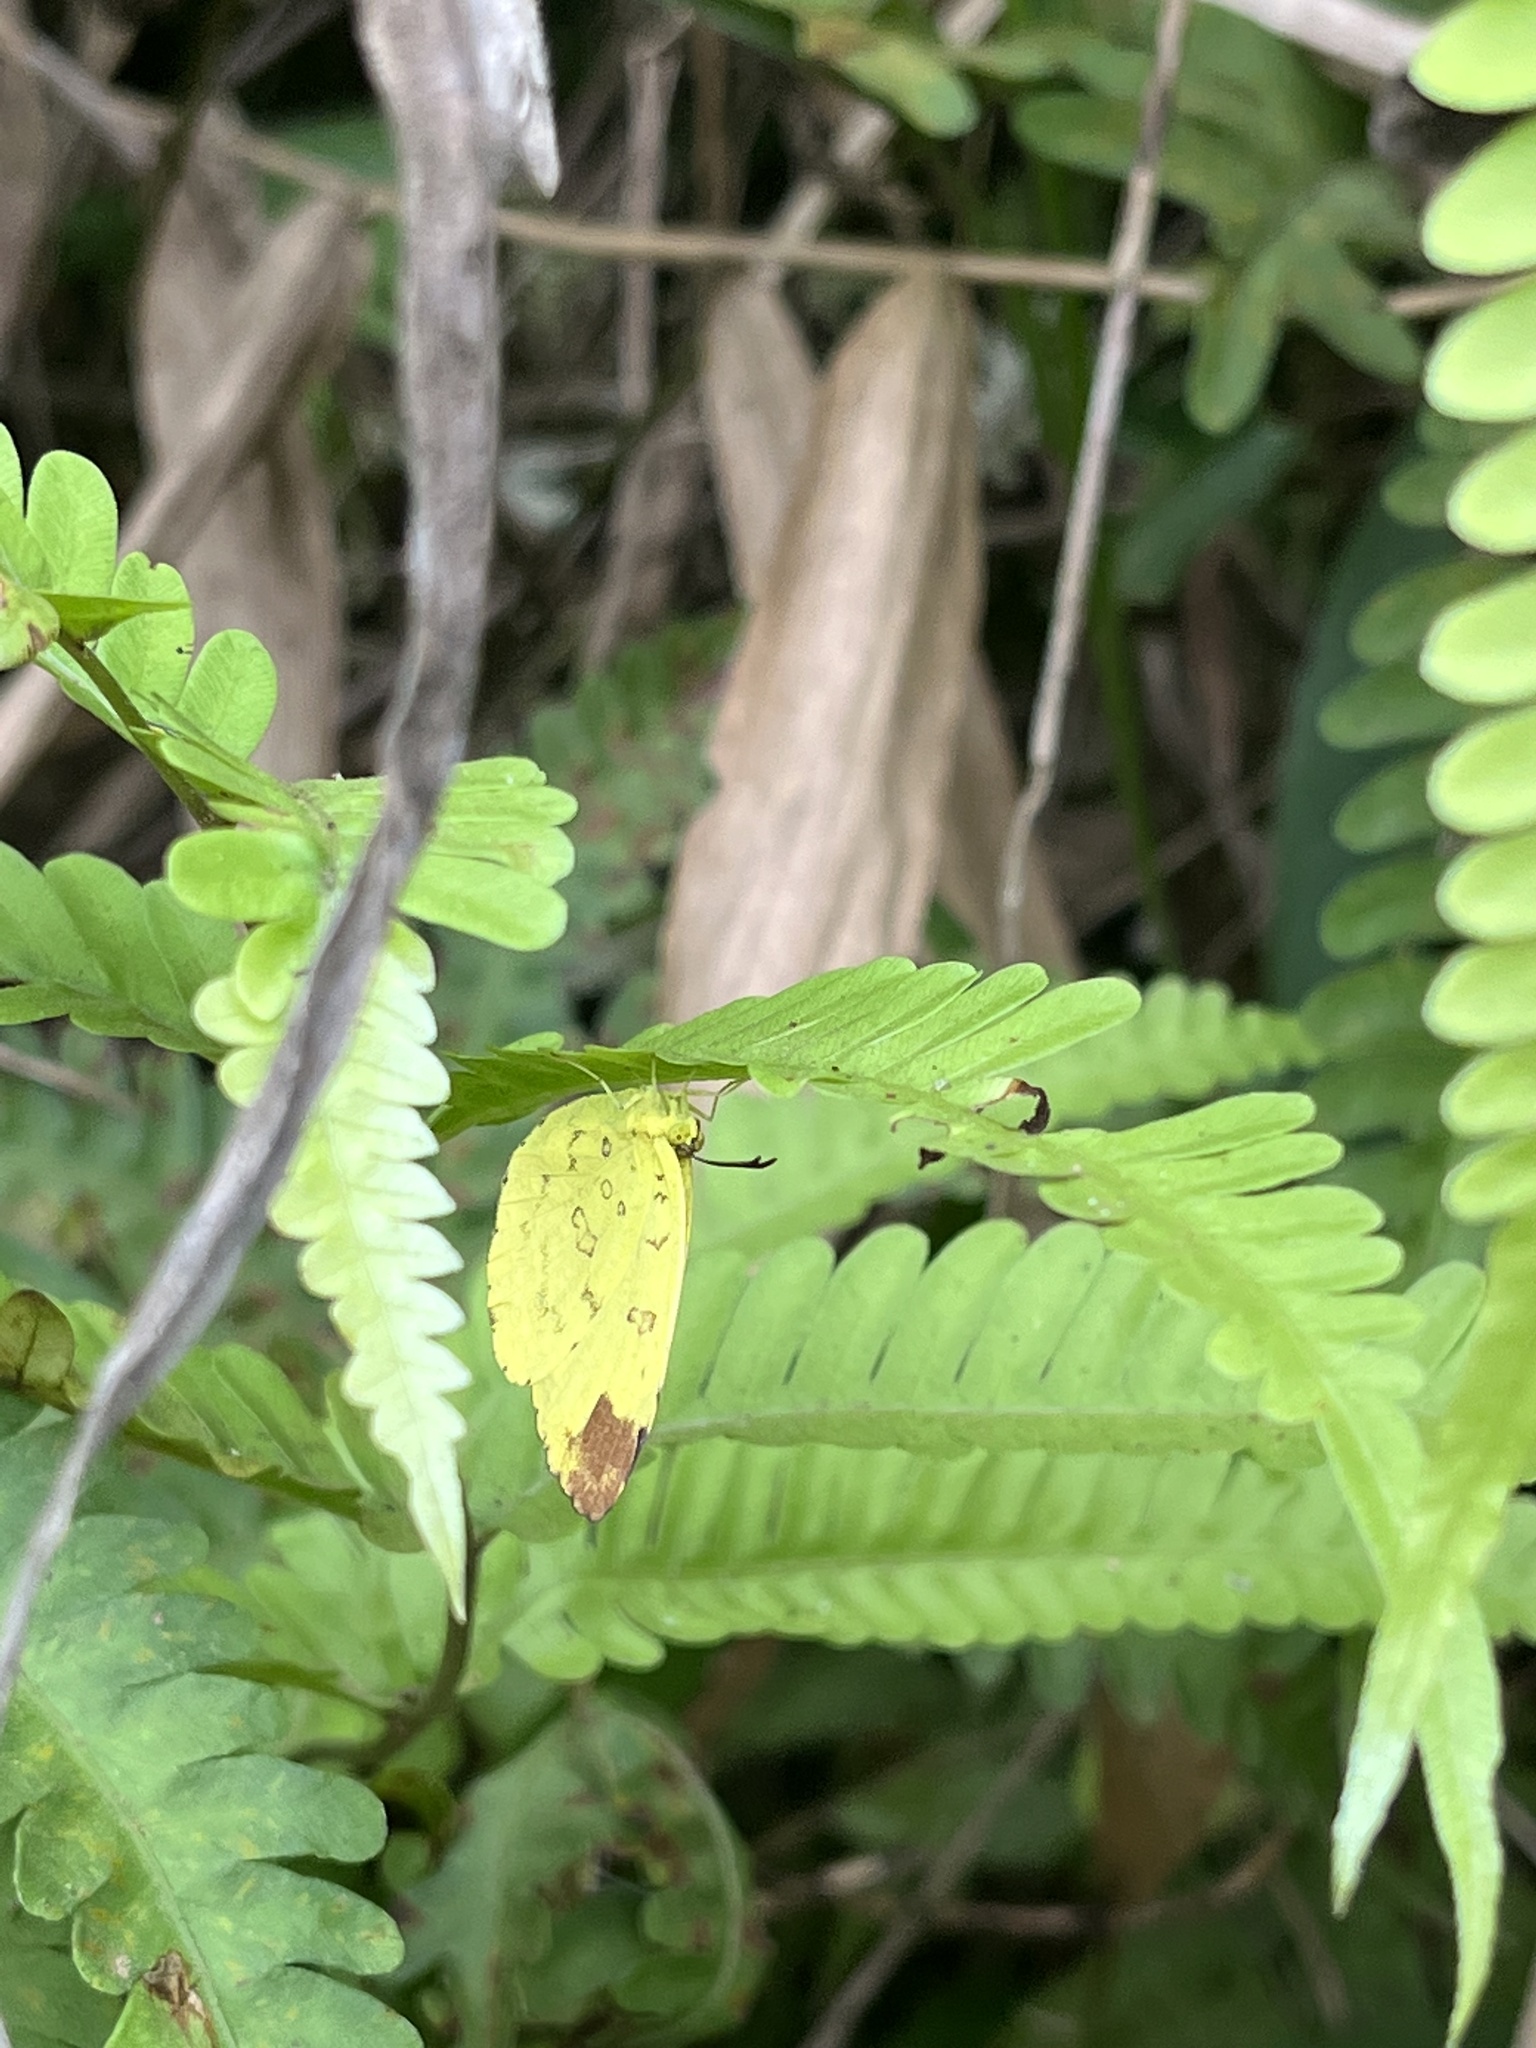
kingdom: Animalia
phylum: Arthropoda
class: Insecta
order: Lepidoptera
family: Pieridae
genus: Eurema
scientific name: Eurema blanda
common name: Three-spot grass yellow
